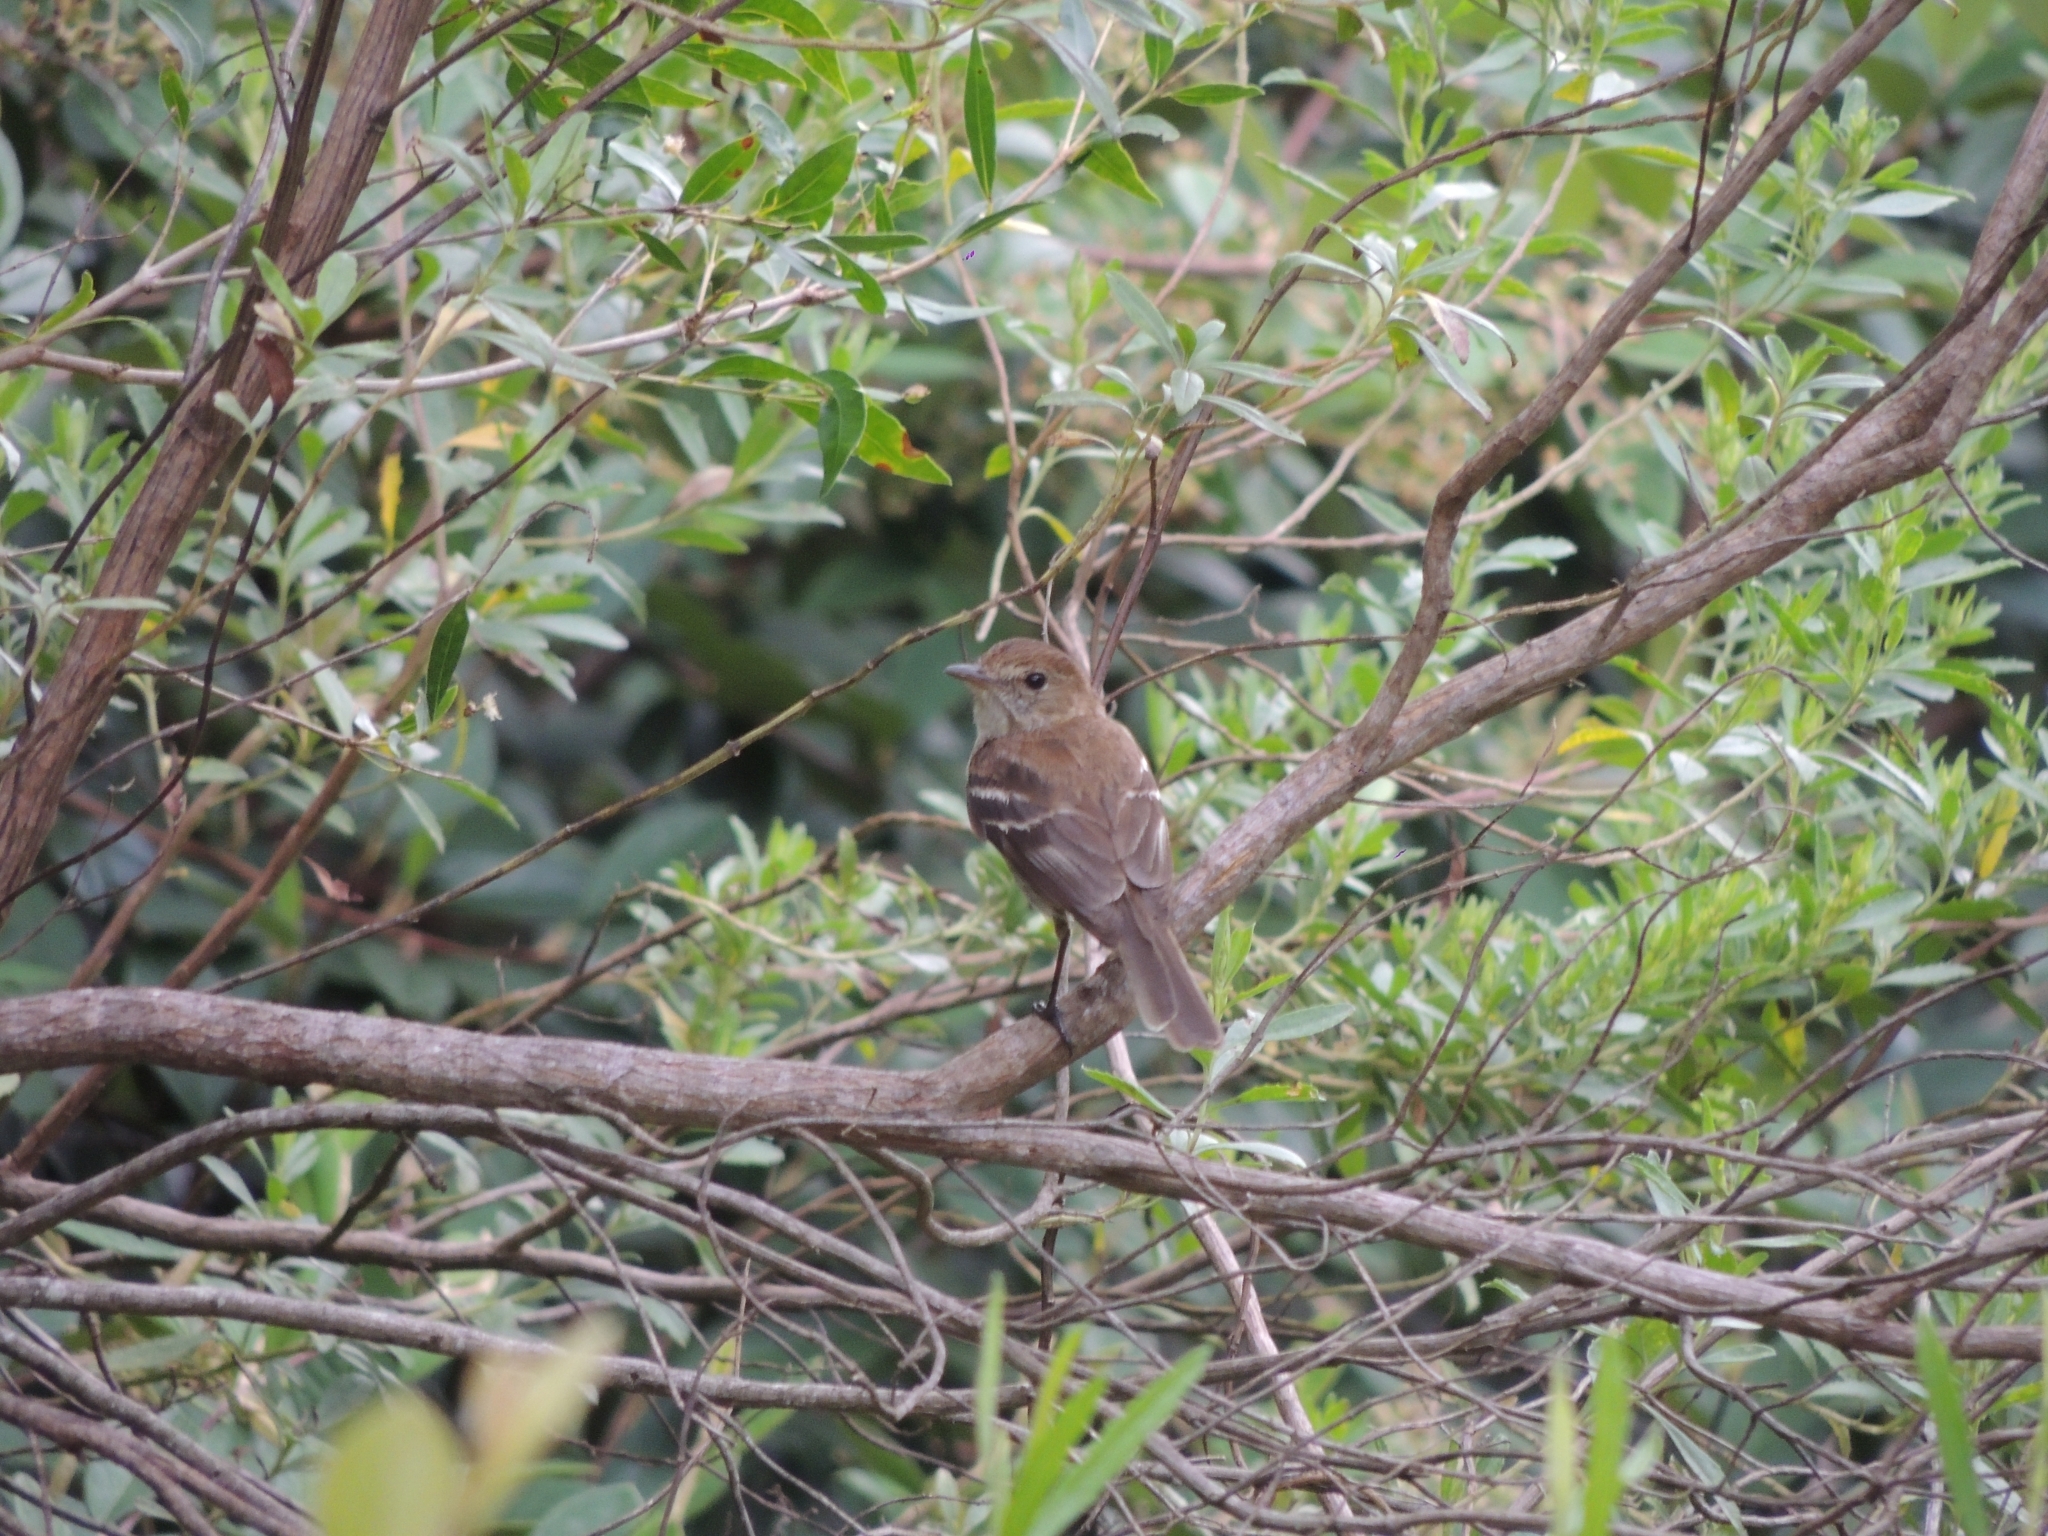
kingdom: Animalia
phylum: Chordata
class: Aves
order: Passeriformes
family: Tyrannidae
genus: Myiophobus
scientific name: Myiophobus fasciatus
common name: Bran-colored flycatcher
